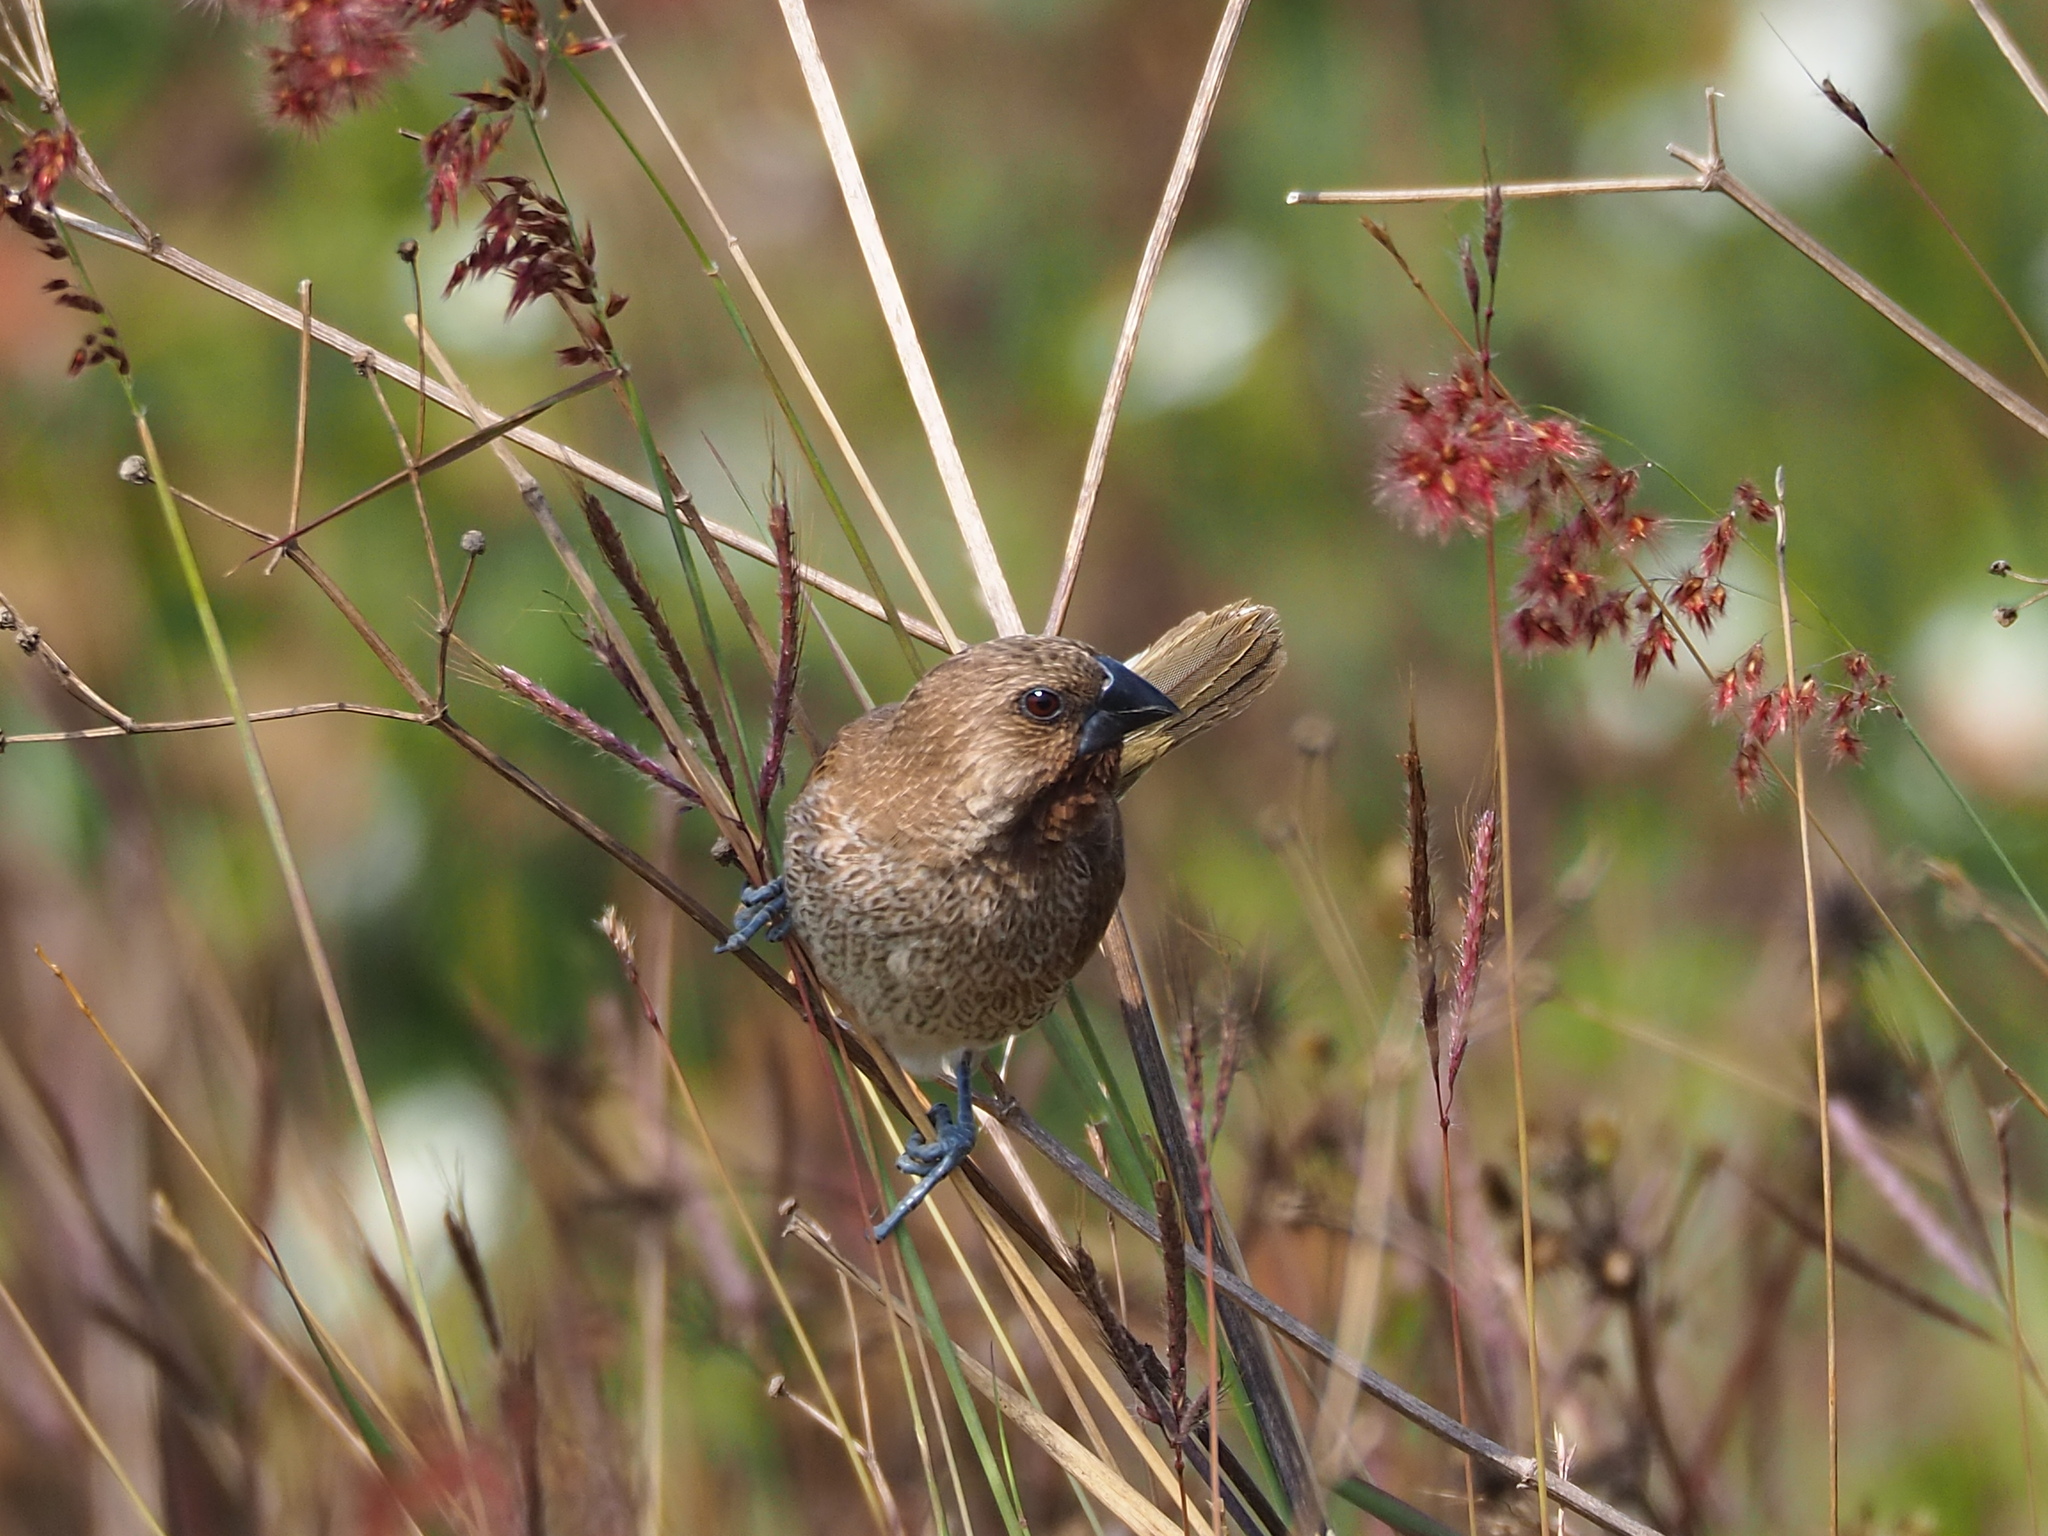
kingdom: Animalia
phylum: Chordata
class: Aves
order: Passeriformes
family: Estrildidae
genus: Lonchura
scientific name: Lonchura punctulata
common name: Scaly-breasted munia
